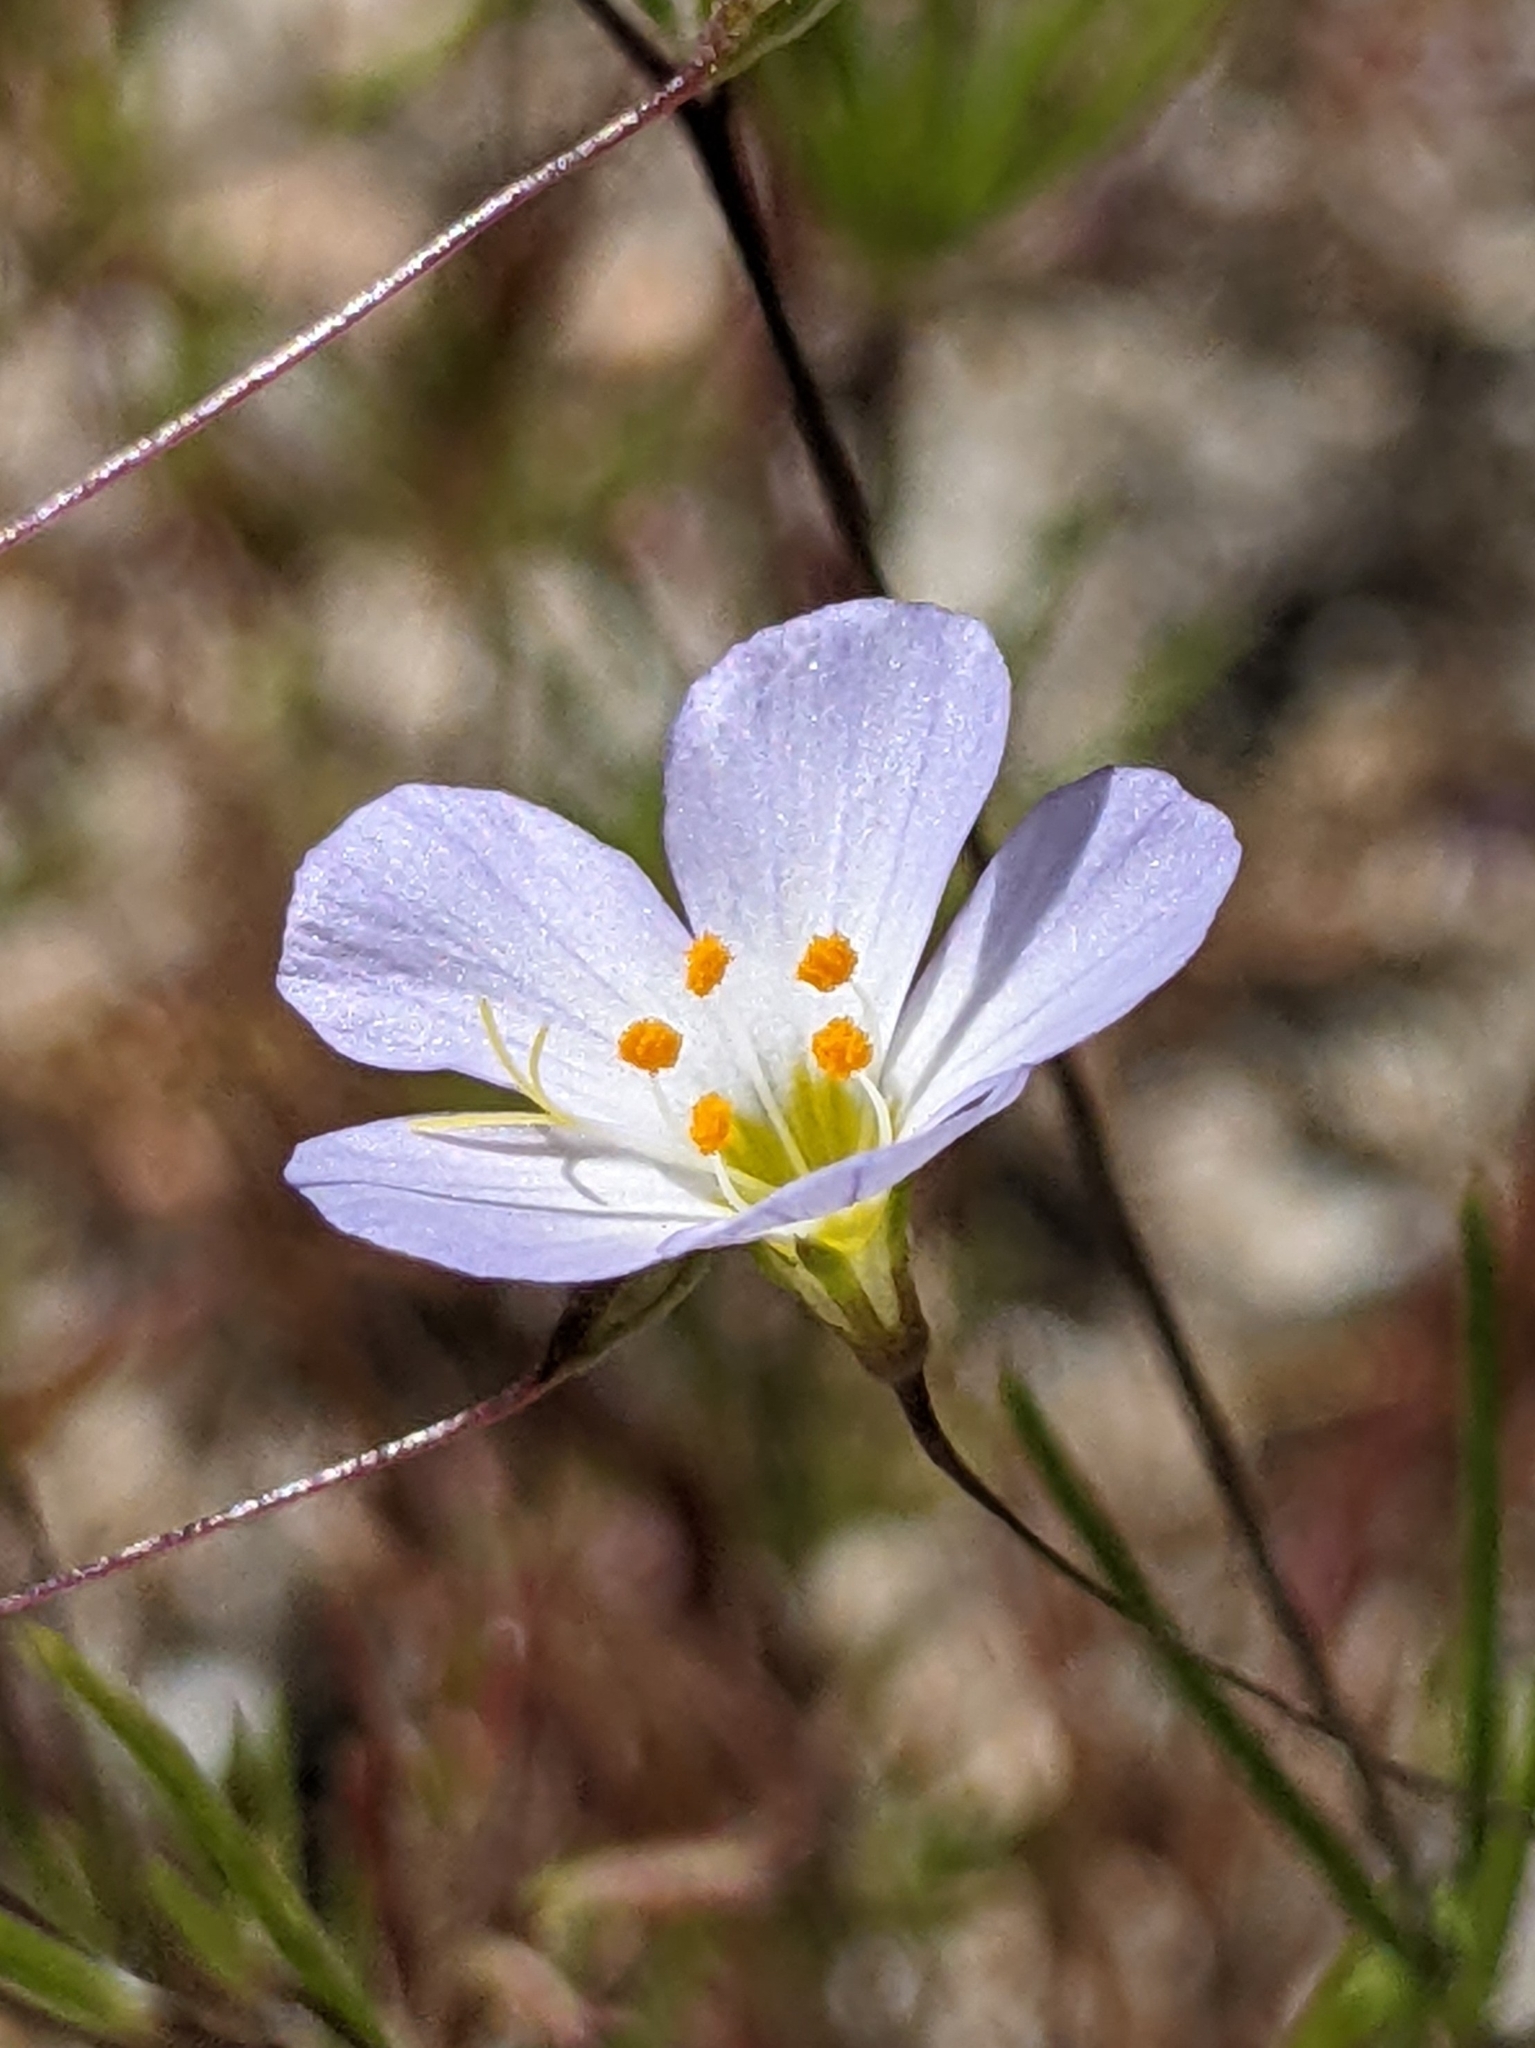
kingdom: Plantae
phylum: Tracheophyta
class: Magnoliopsida
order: Ericales
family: Polemoniaceae
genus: Leptosiphon
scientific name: Leptosiphon liniflorus
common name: Narrowflower flaxflower
